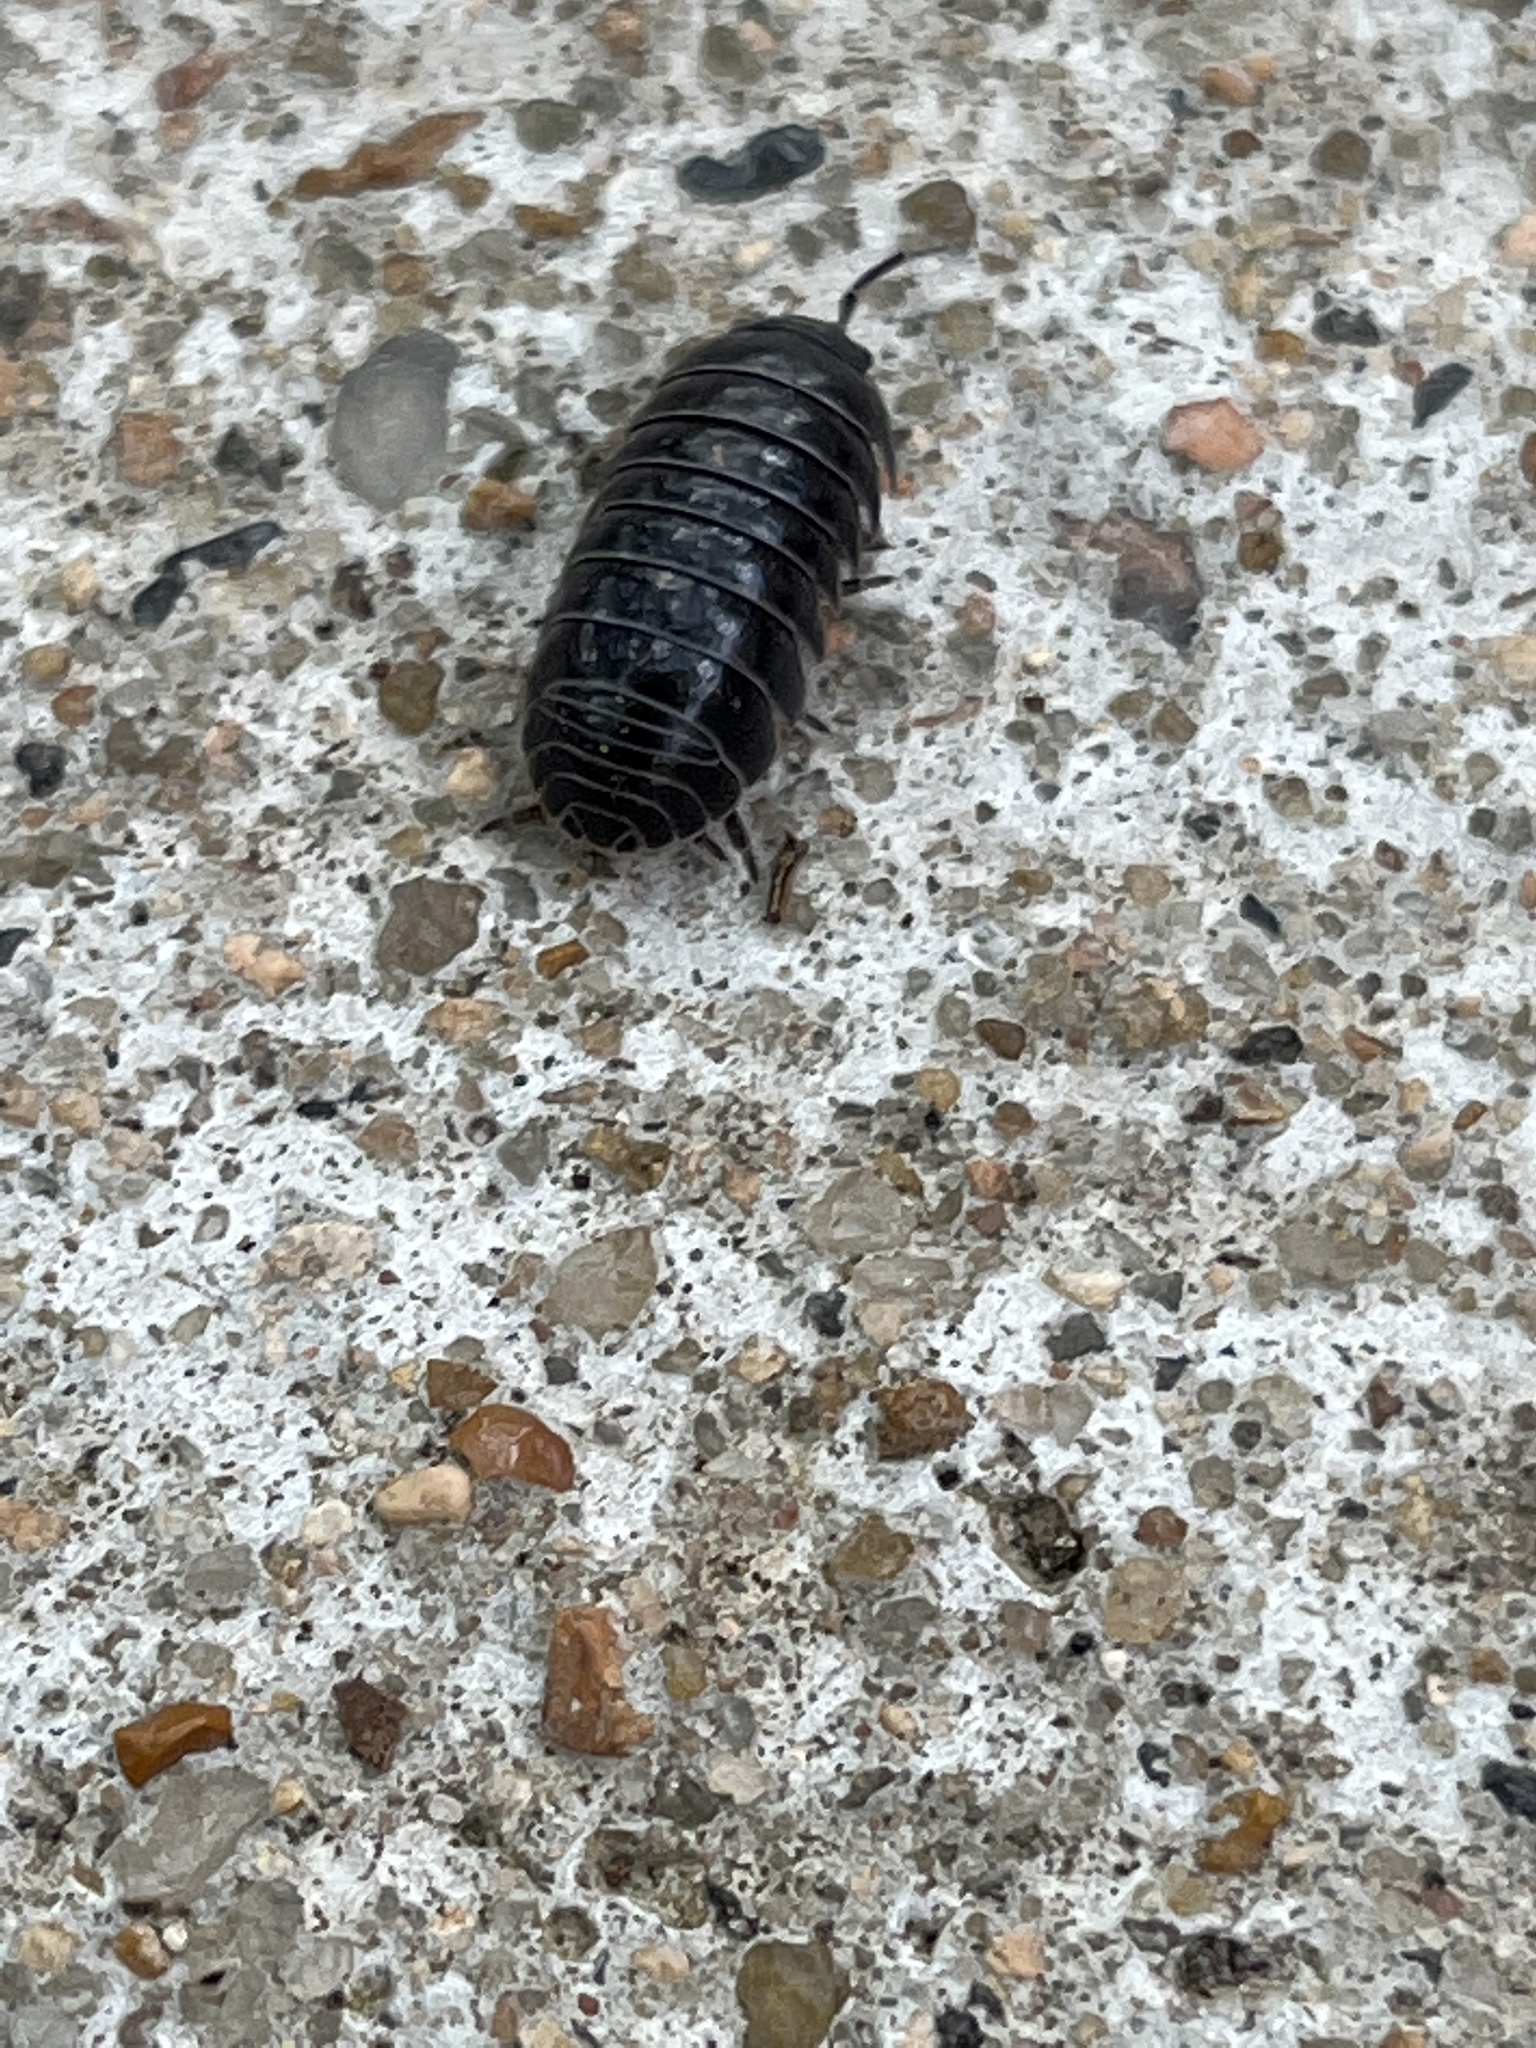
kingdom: Animalia
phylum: Arthropoda
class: Malacostraca
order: Isopoda
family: Armadillidiidae
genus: Armadillidium
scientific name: Armadillidium vulgare
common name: Common pill woodlouse
